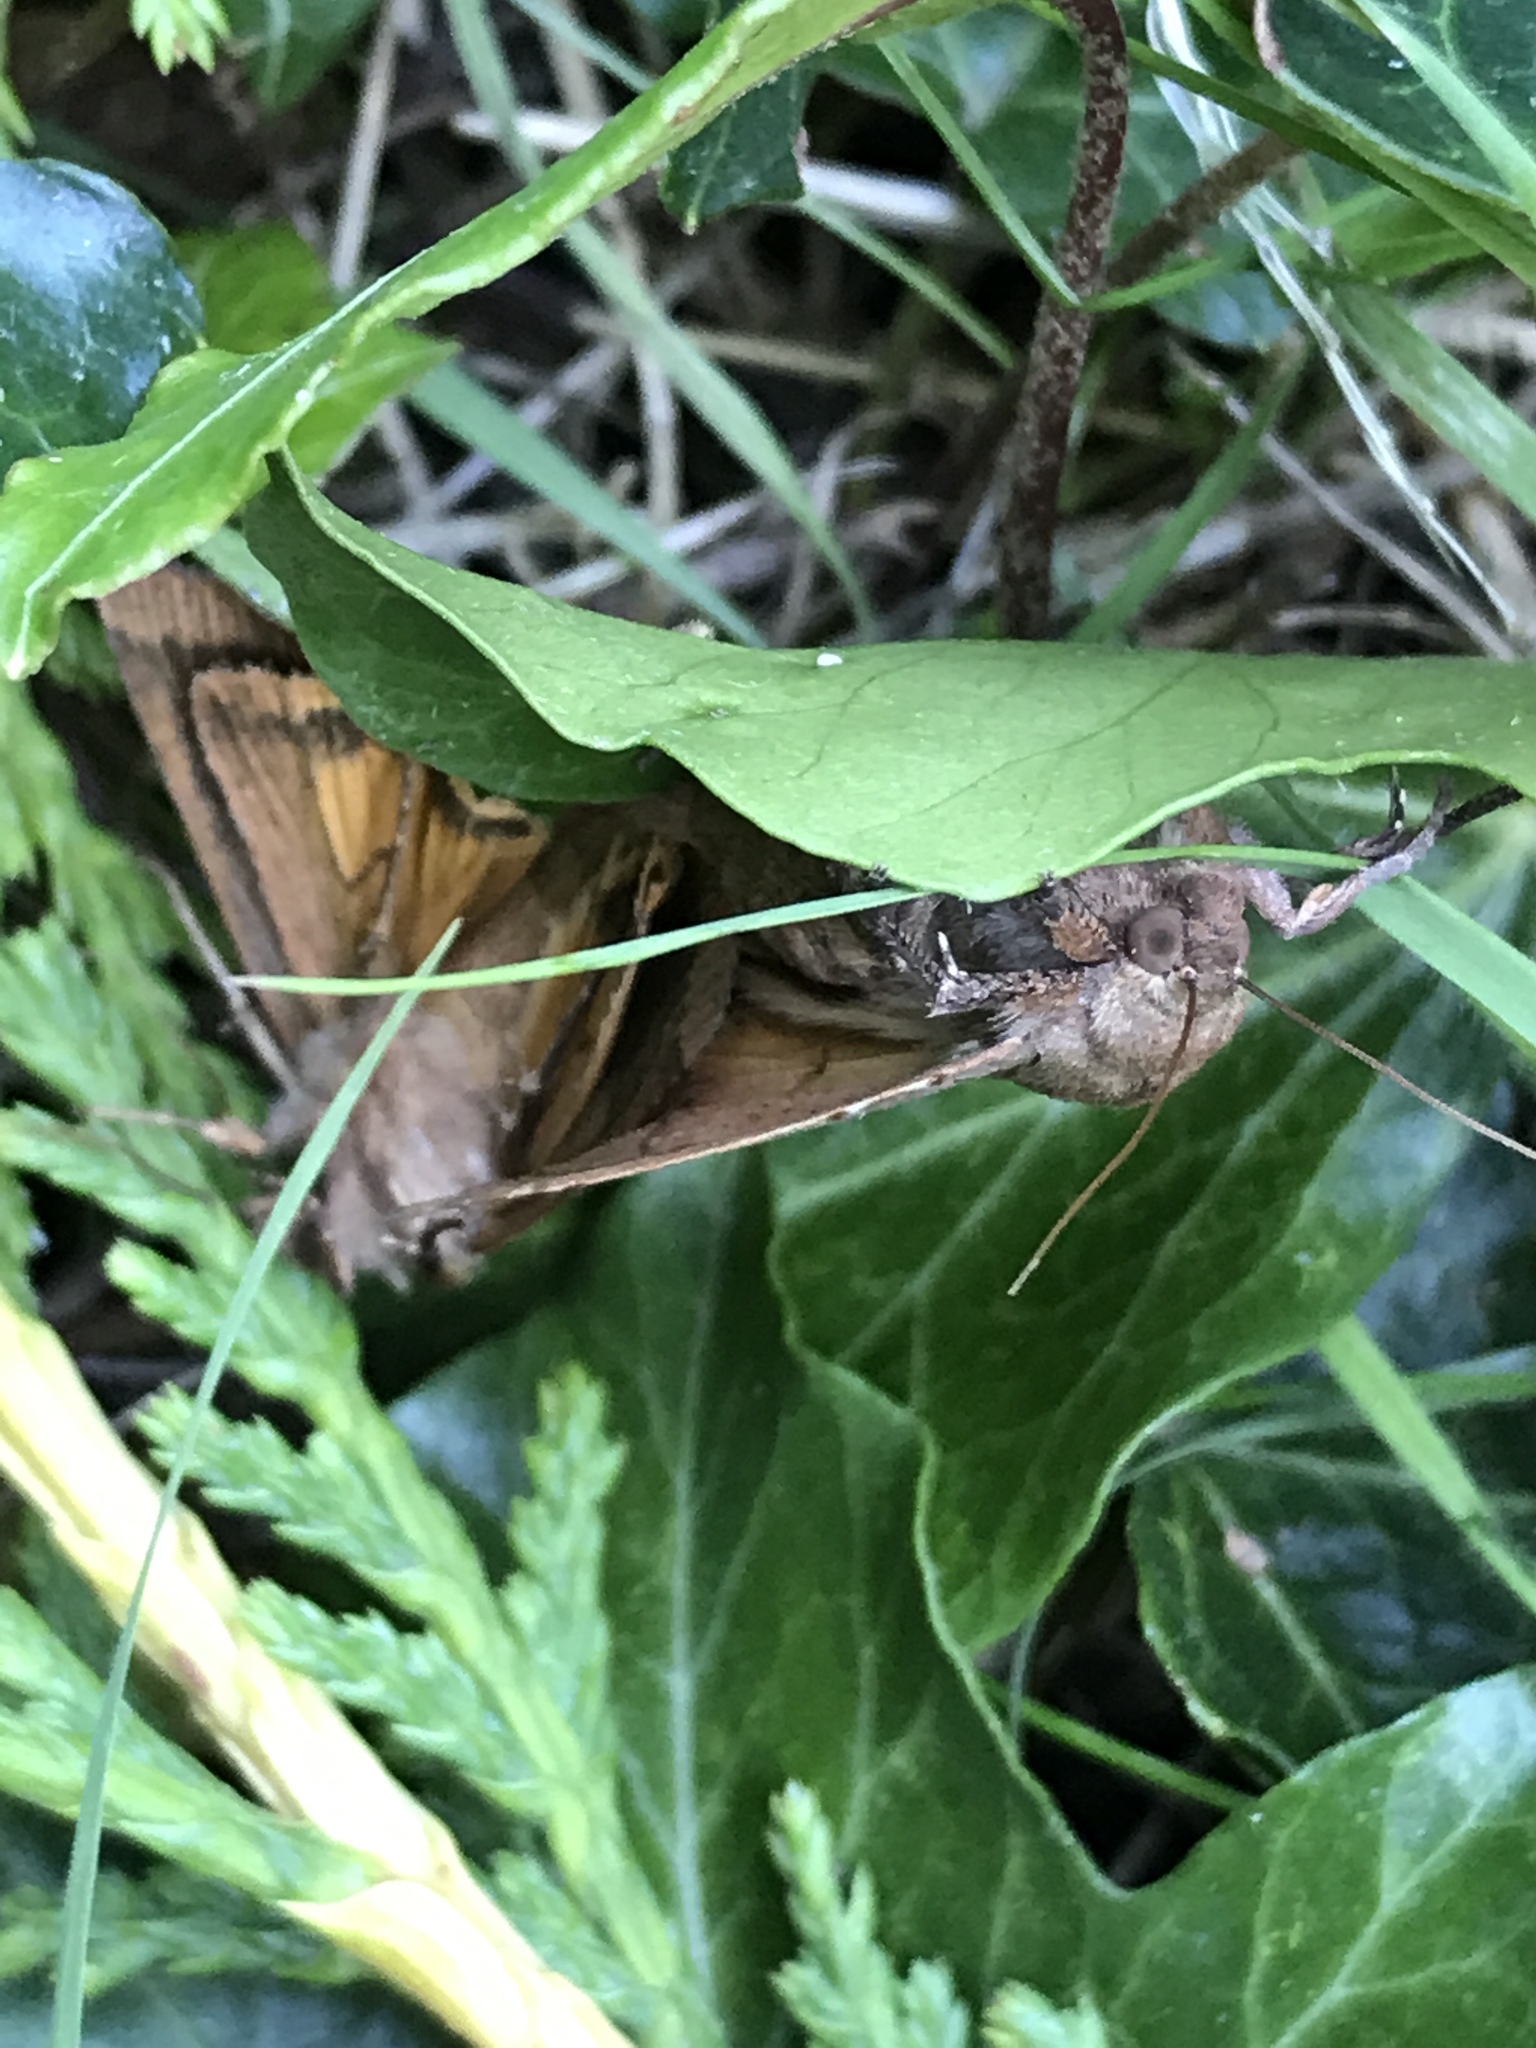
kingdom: Animalia
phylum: Arthropoda
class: Insecta
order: Lepidoptera
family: Noctuidae
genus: Noctua
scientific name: Noctua comes
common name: Lesser yellow underwing
